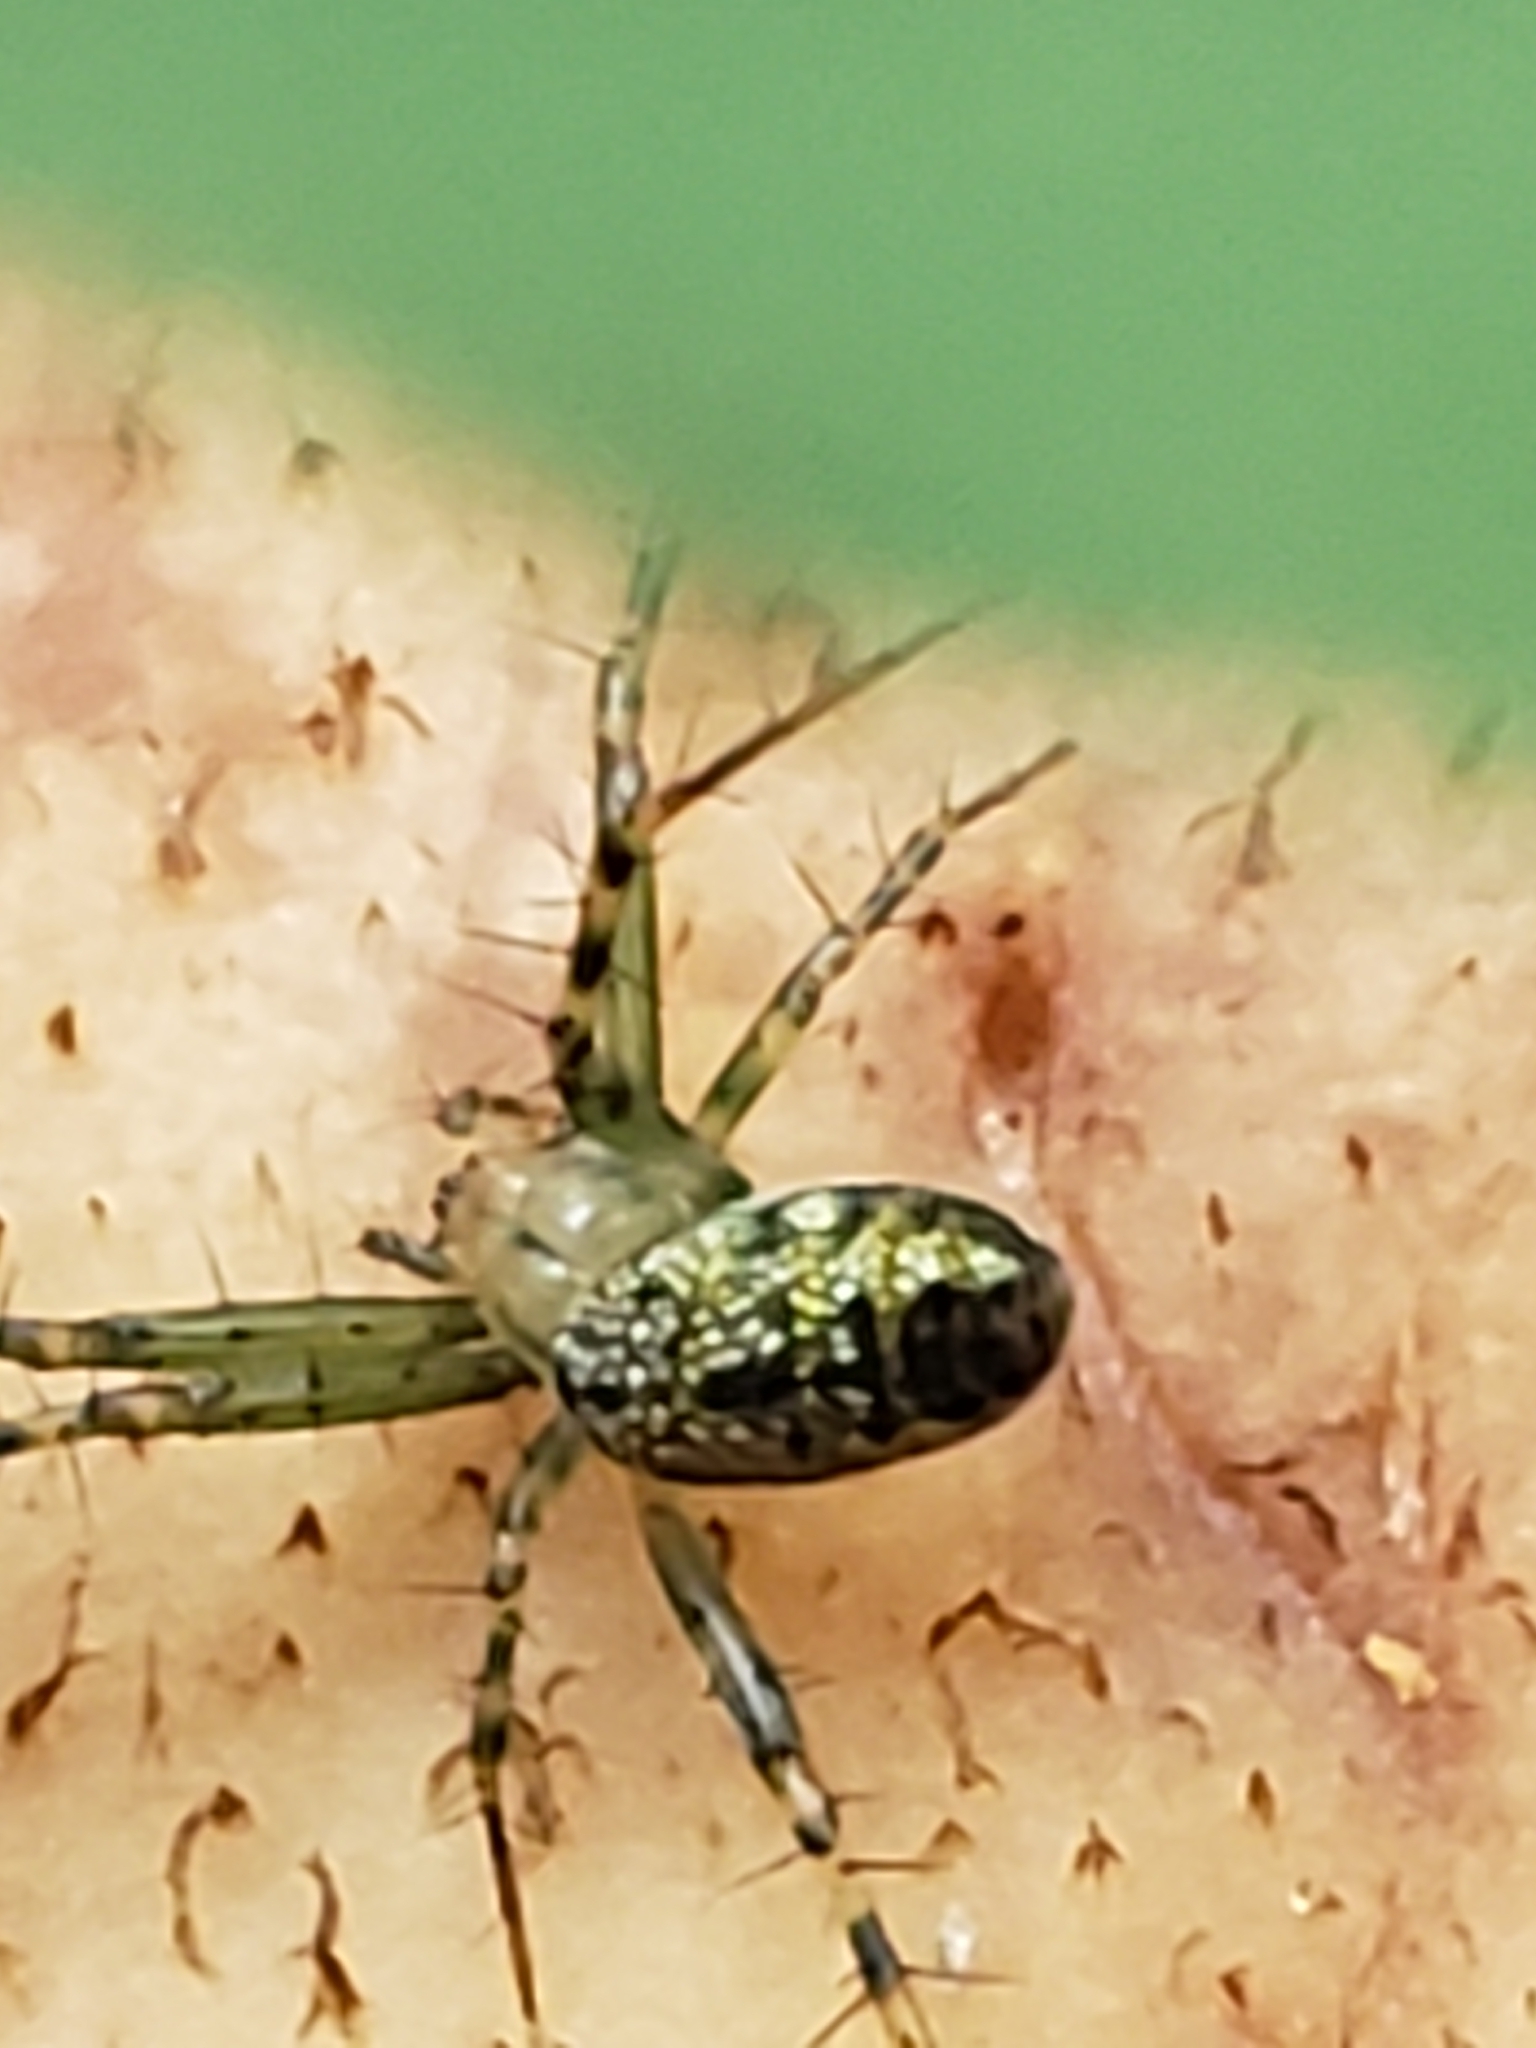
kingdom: Animalia
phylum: Arthropoda
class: Arachnida
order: Araneae
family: Araneidae
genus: Mangora
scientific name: Mangora spiculata
